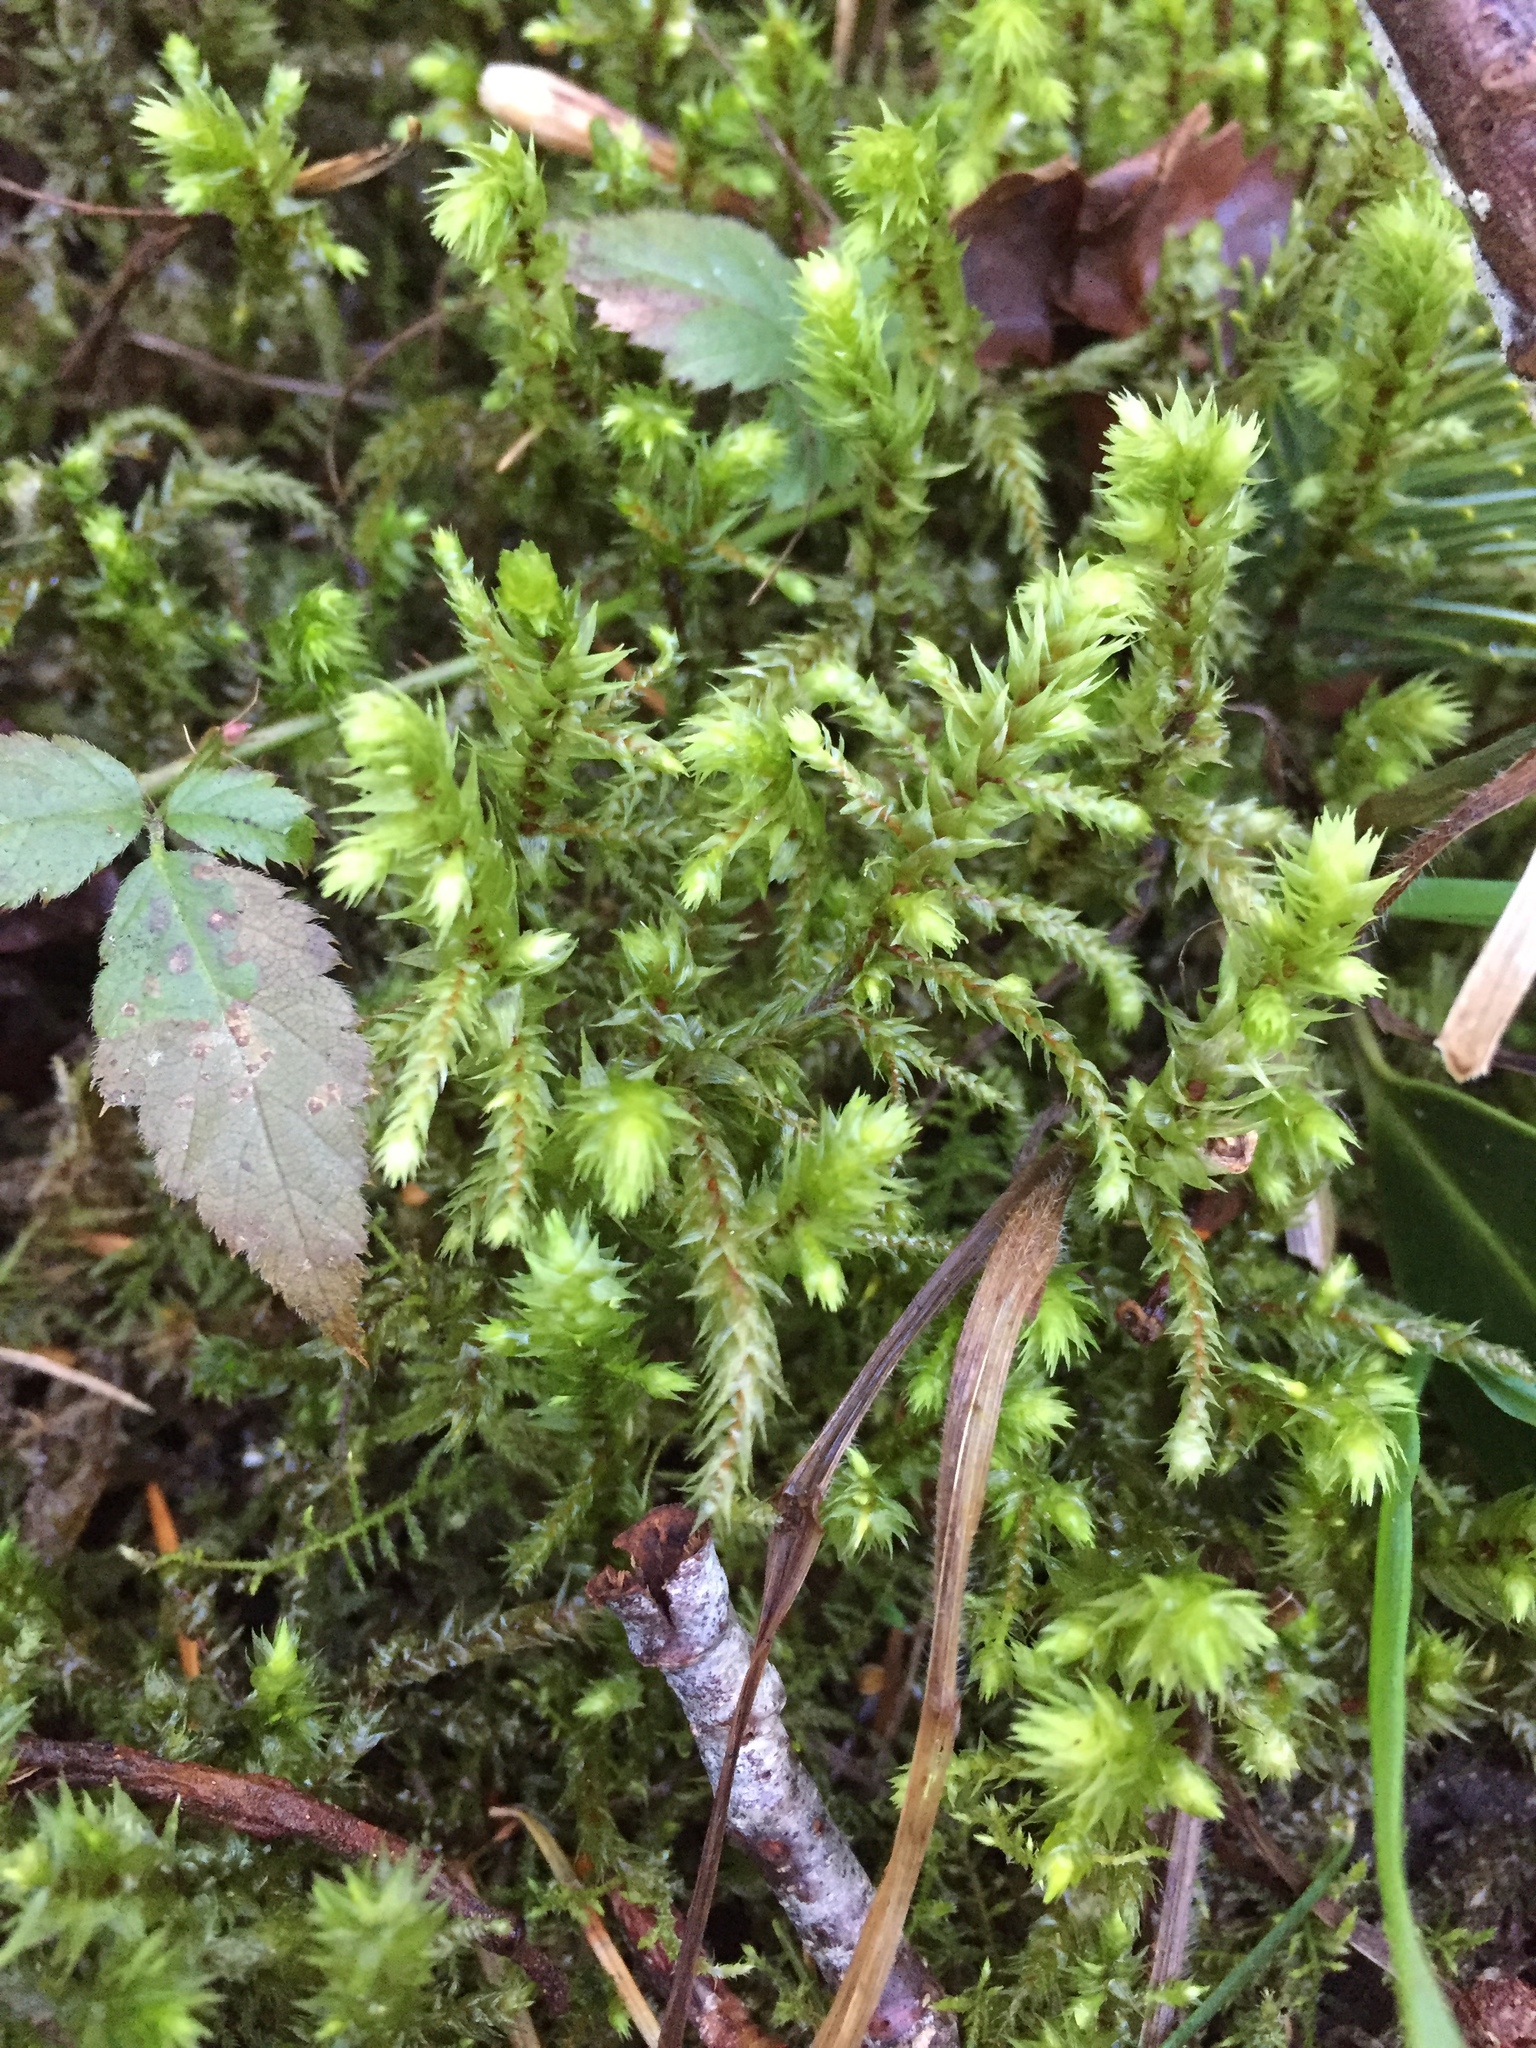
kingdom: Plantae
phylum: Bryophyta
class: Bryopsida
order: Hypnales
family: Hylocomiaceae
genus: Hylocomiadelphus
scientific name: Hylocomiadelphus triquetrus
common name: Rough goose neck moss
